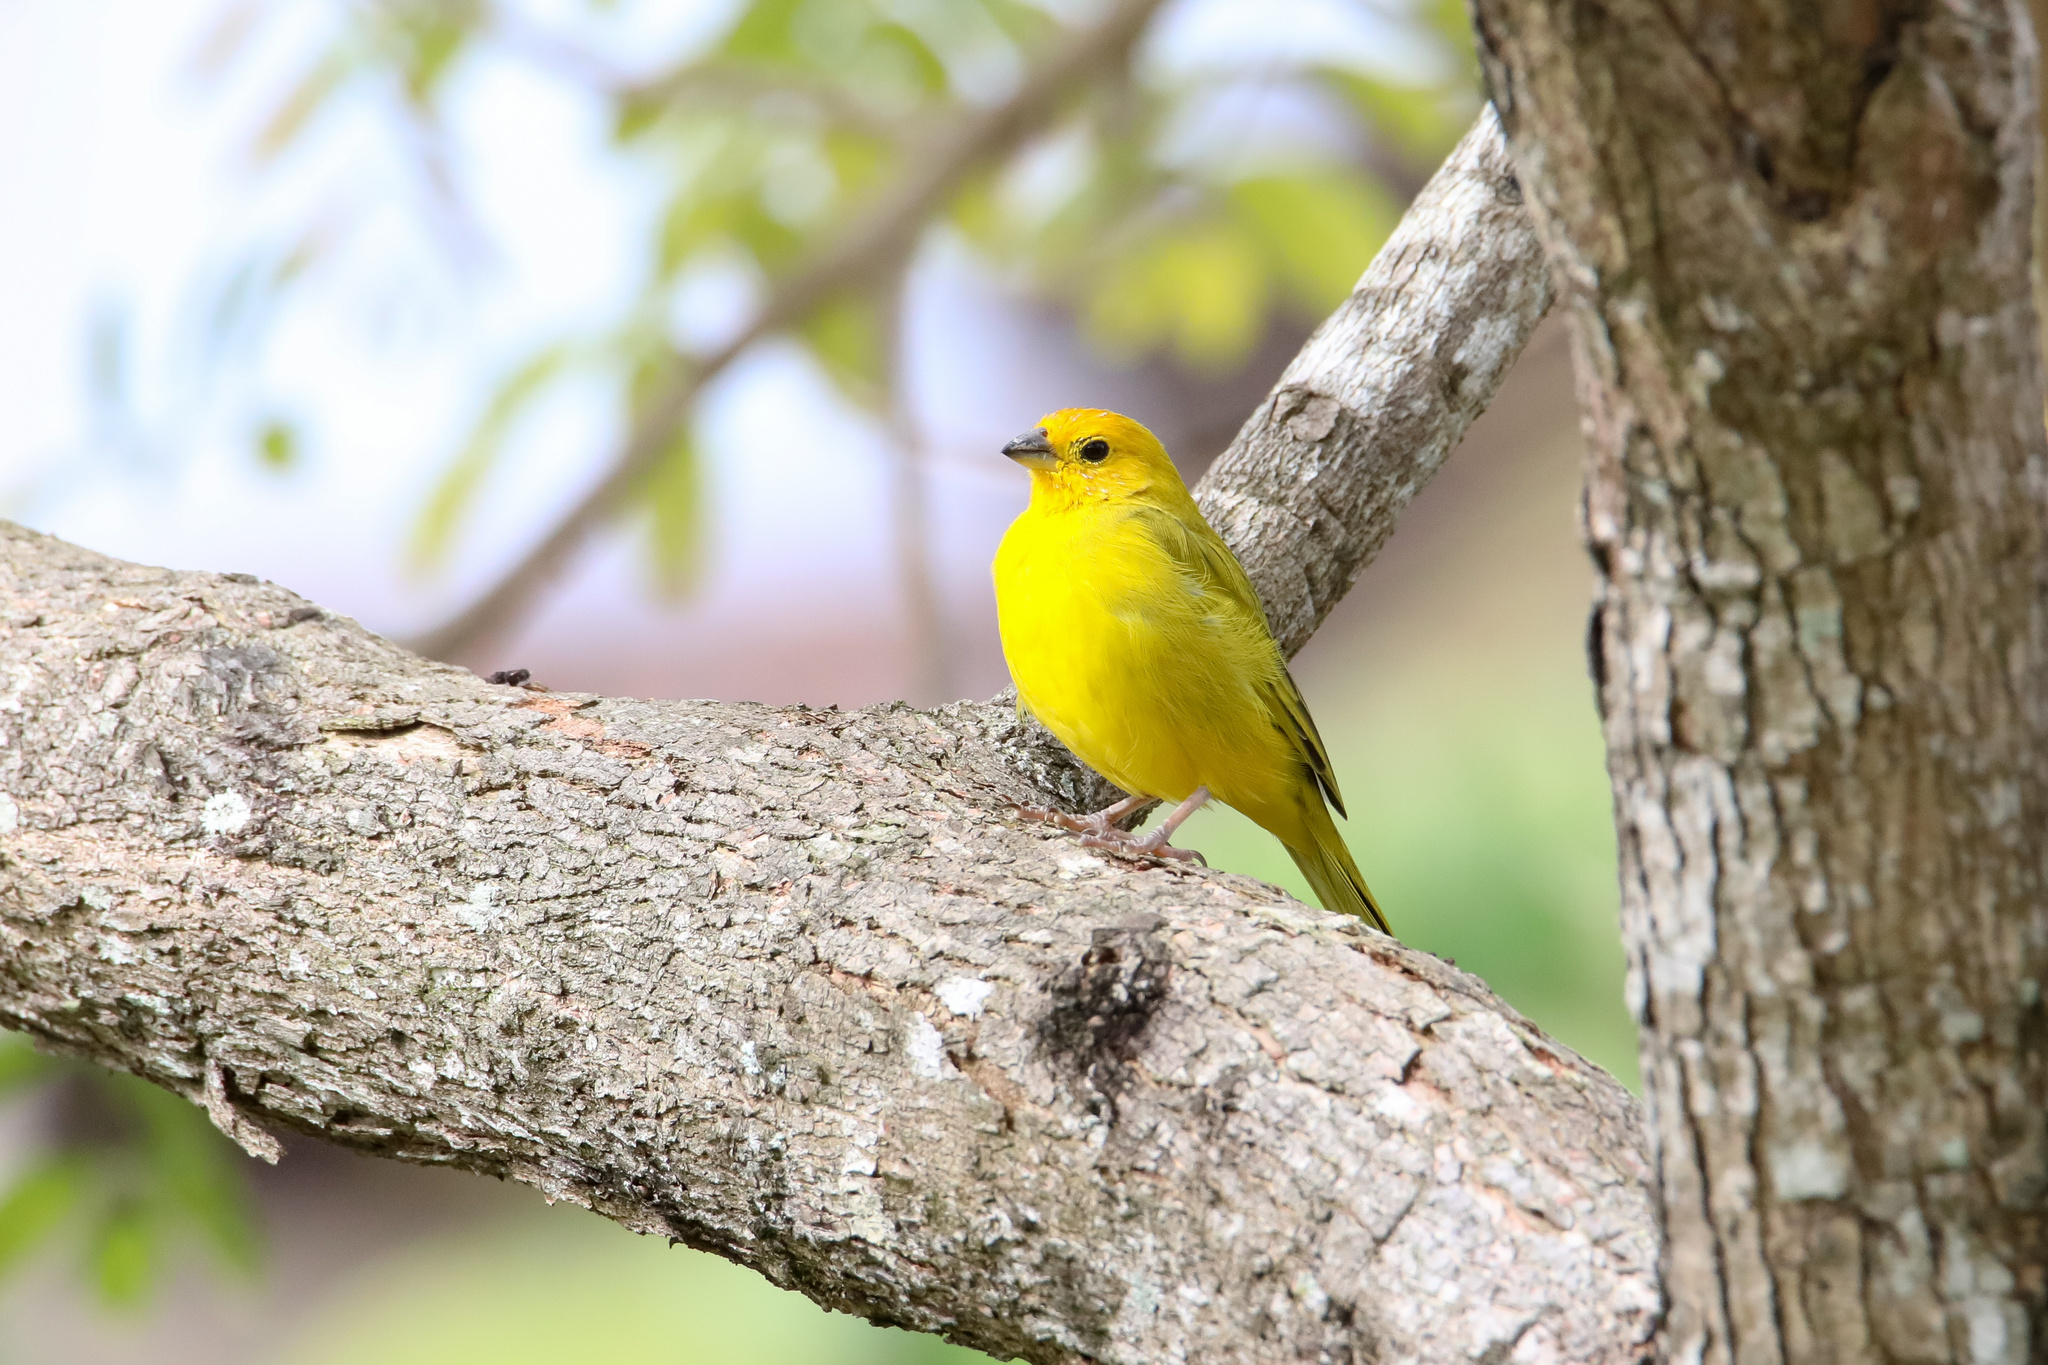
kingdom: Animalia
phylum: Chordata
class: Aves
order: Passeriformes
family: Thraupidae
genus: Sicalis
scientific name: Sicalis flaveola
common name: Saffron finch
